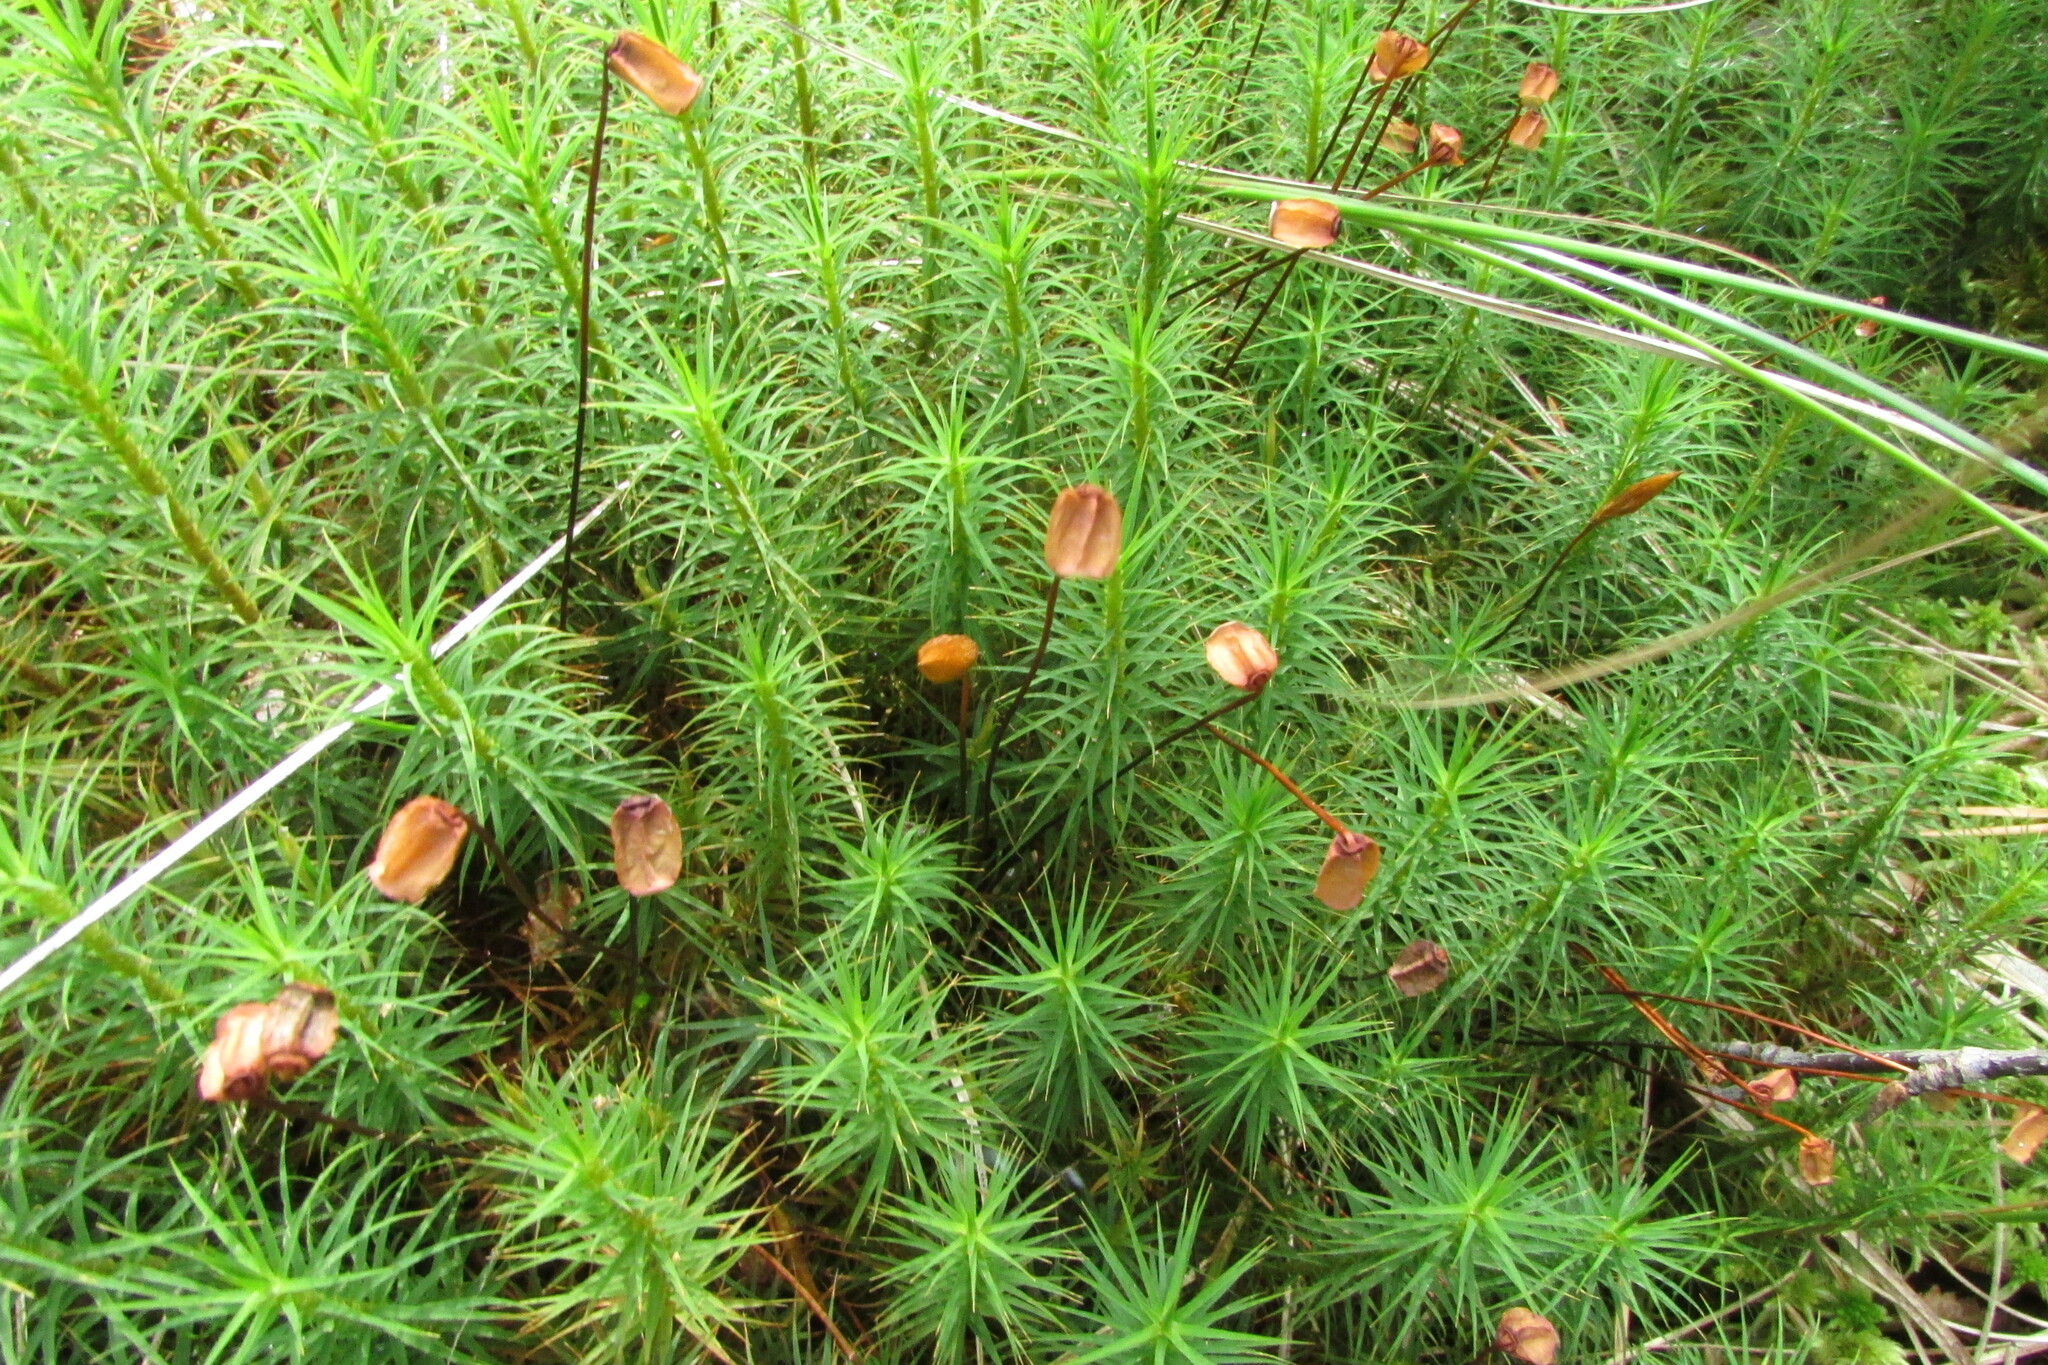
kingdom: Plantae
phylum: Bryophyta
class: Polytrichopsida
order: Polytrichales
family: Polytrichaceae
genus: Polytrichum
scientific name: Polytrichum commune
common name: Common haircap
